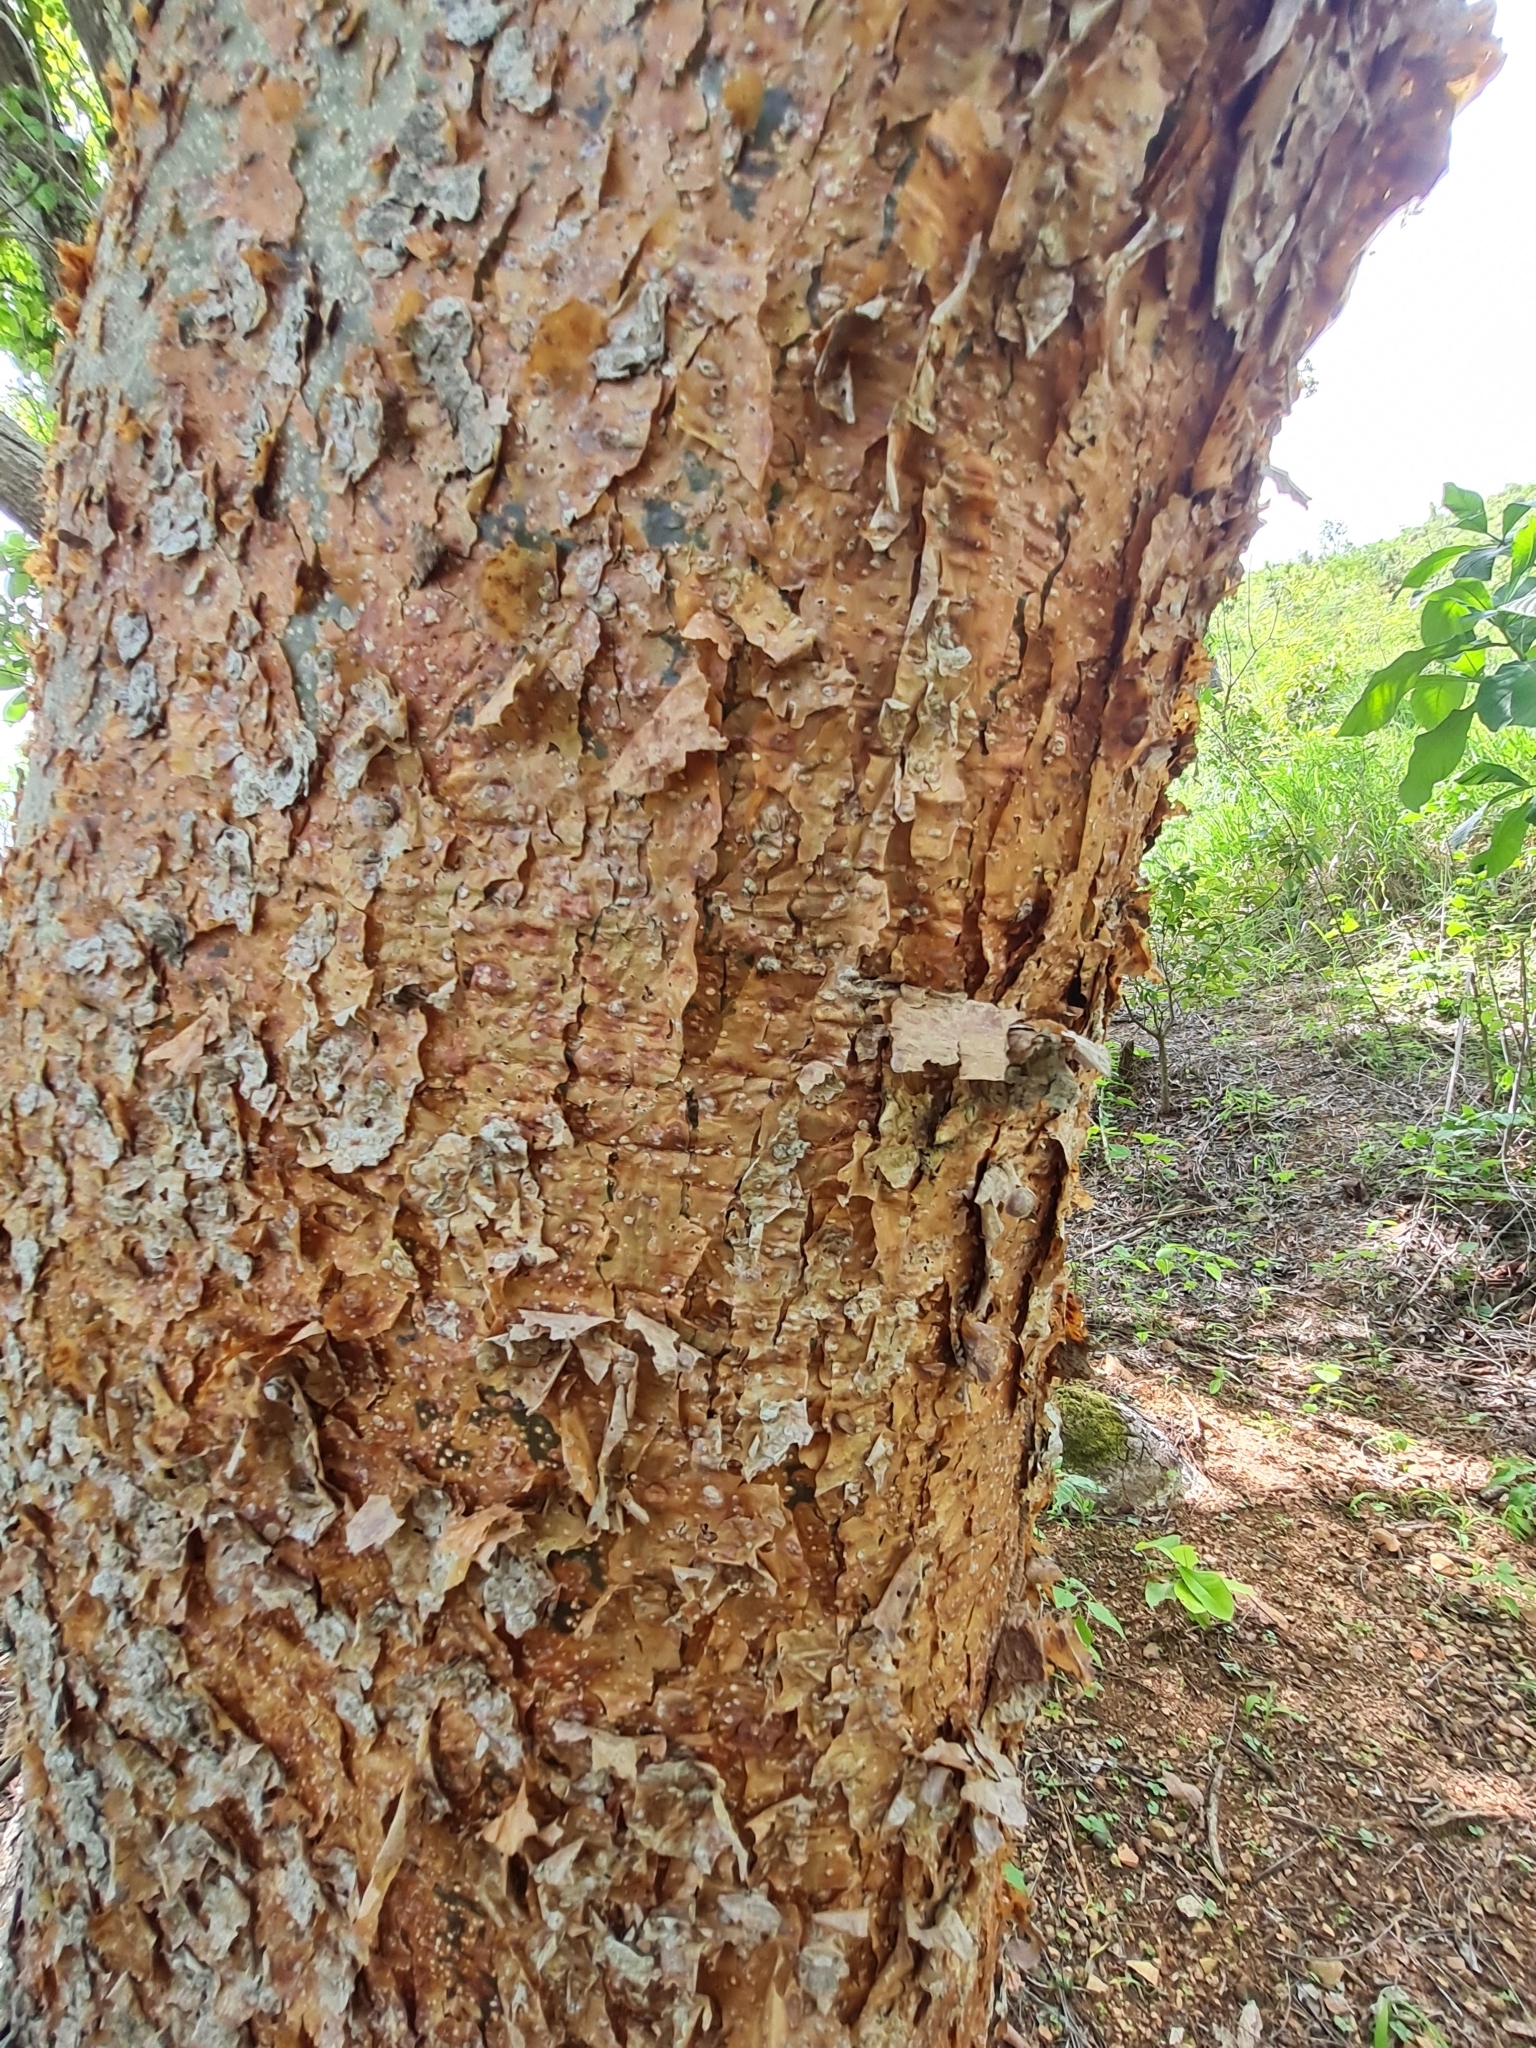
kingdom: Plantae
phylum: Tracheophyta
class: Magnoliopsida
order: Sapindales
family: Burseraceae
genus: Bursera
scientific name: Bursera simaruba
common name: Turpentine tree
